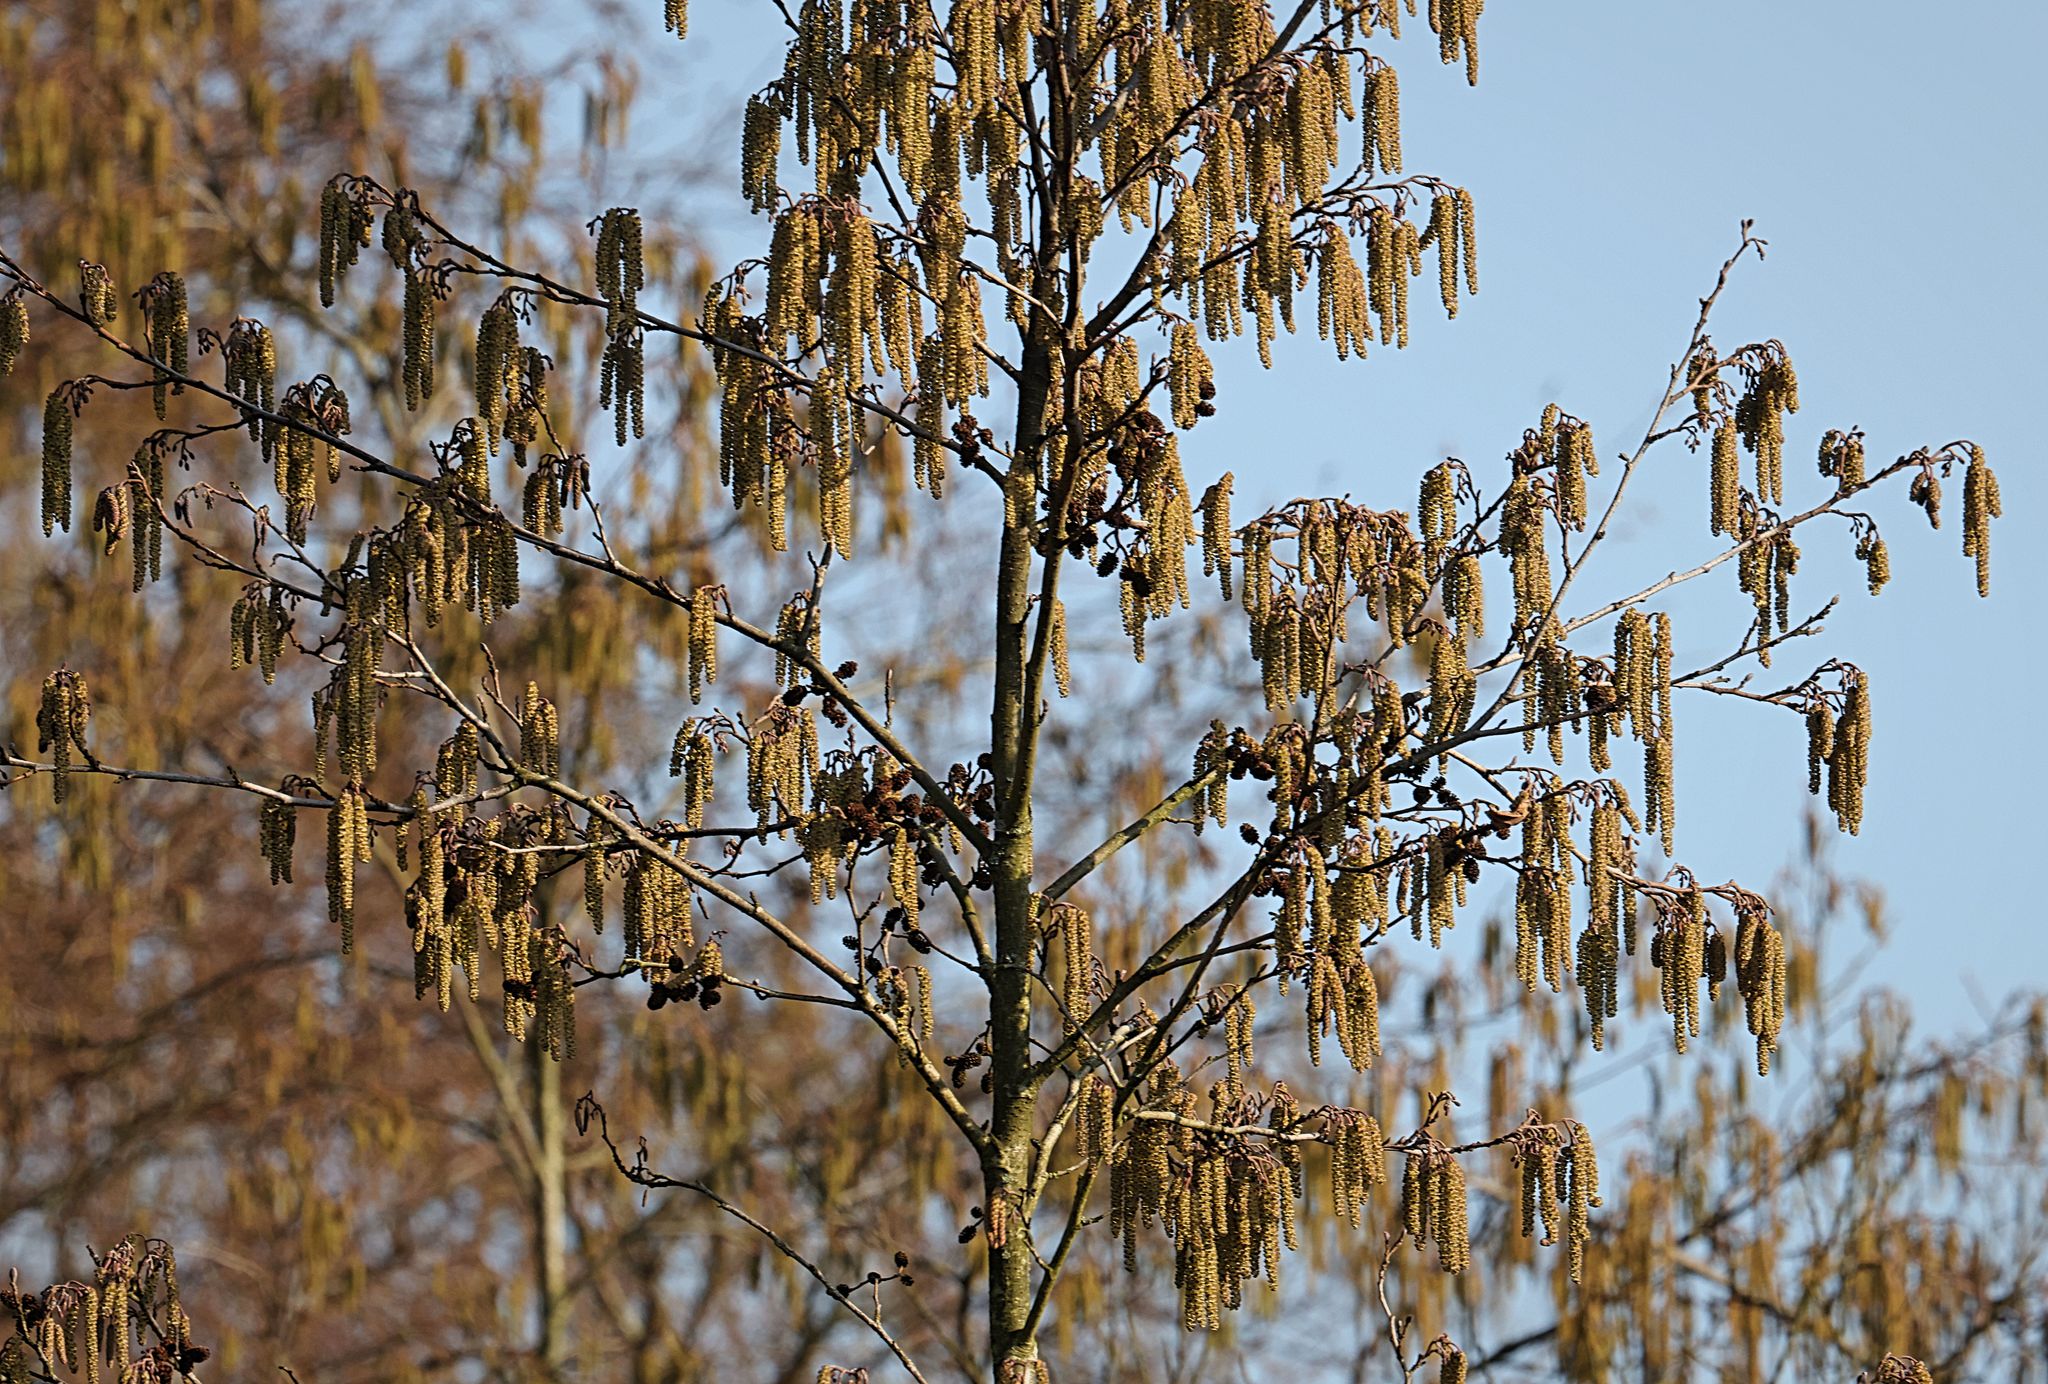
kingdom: Plantae
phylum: Tracheophyta
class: Magnoliopsida
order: Fagales
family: Betulaceae
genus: Alnus
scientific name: Alnus glutinosa
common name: Black alder
